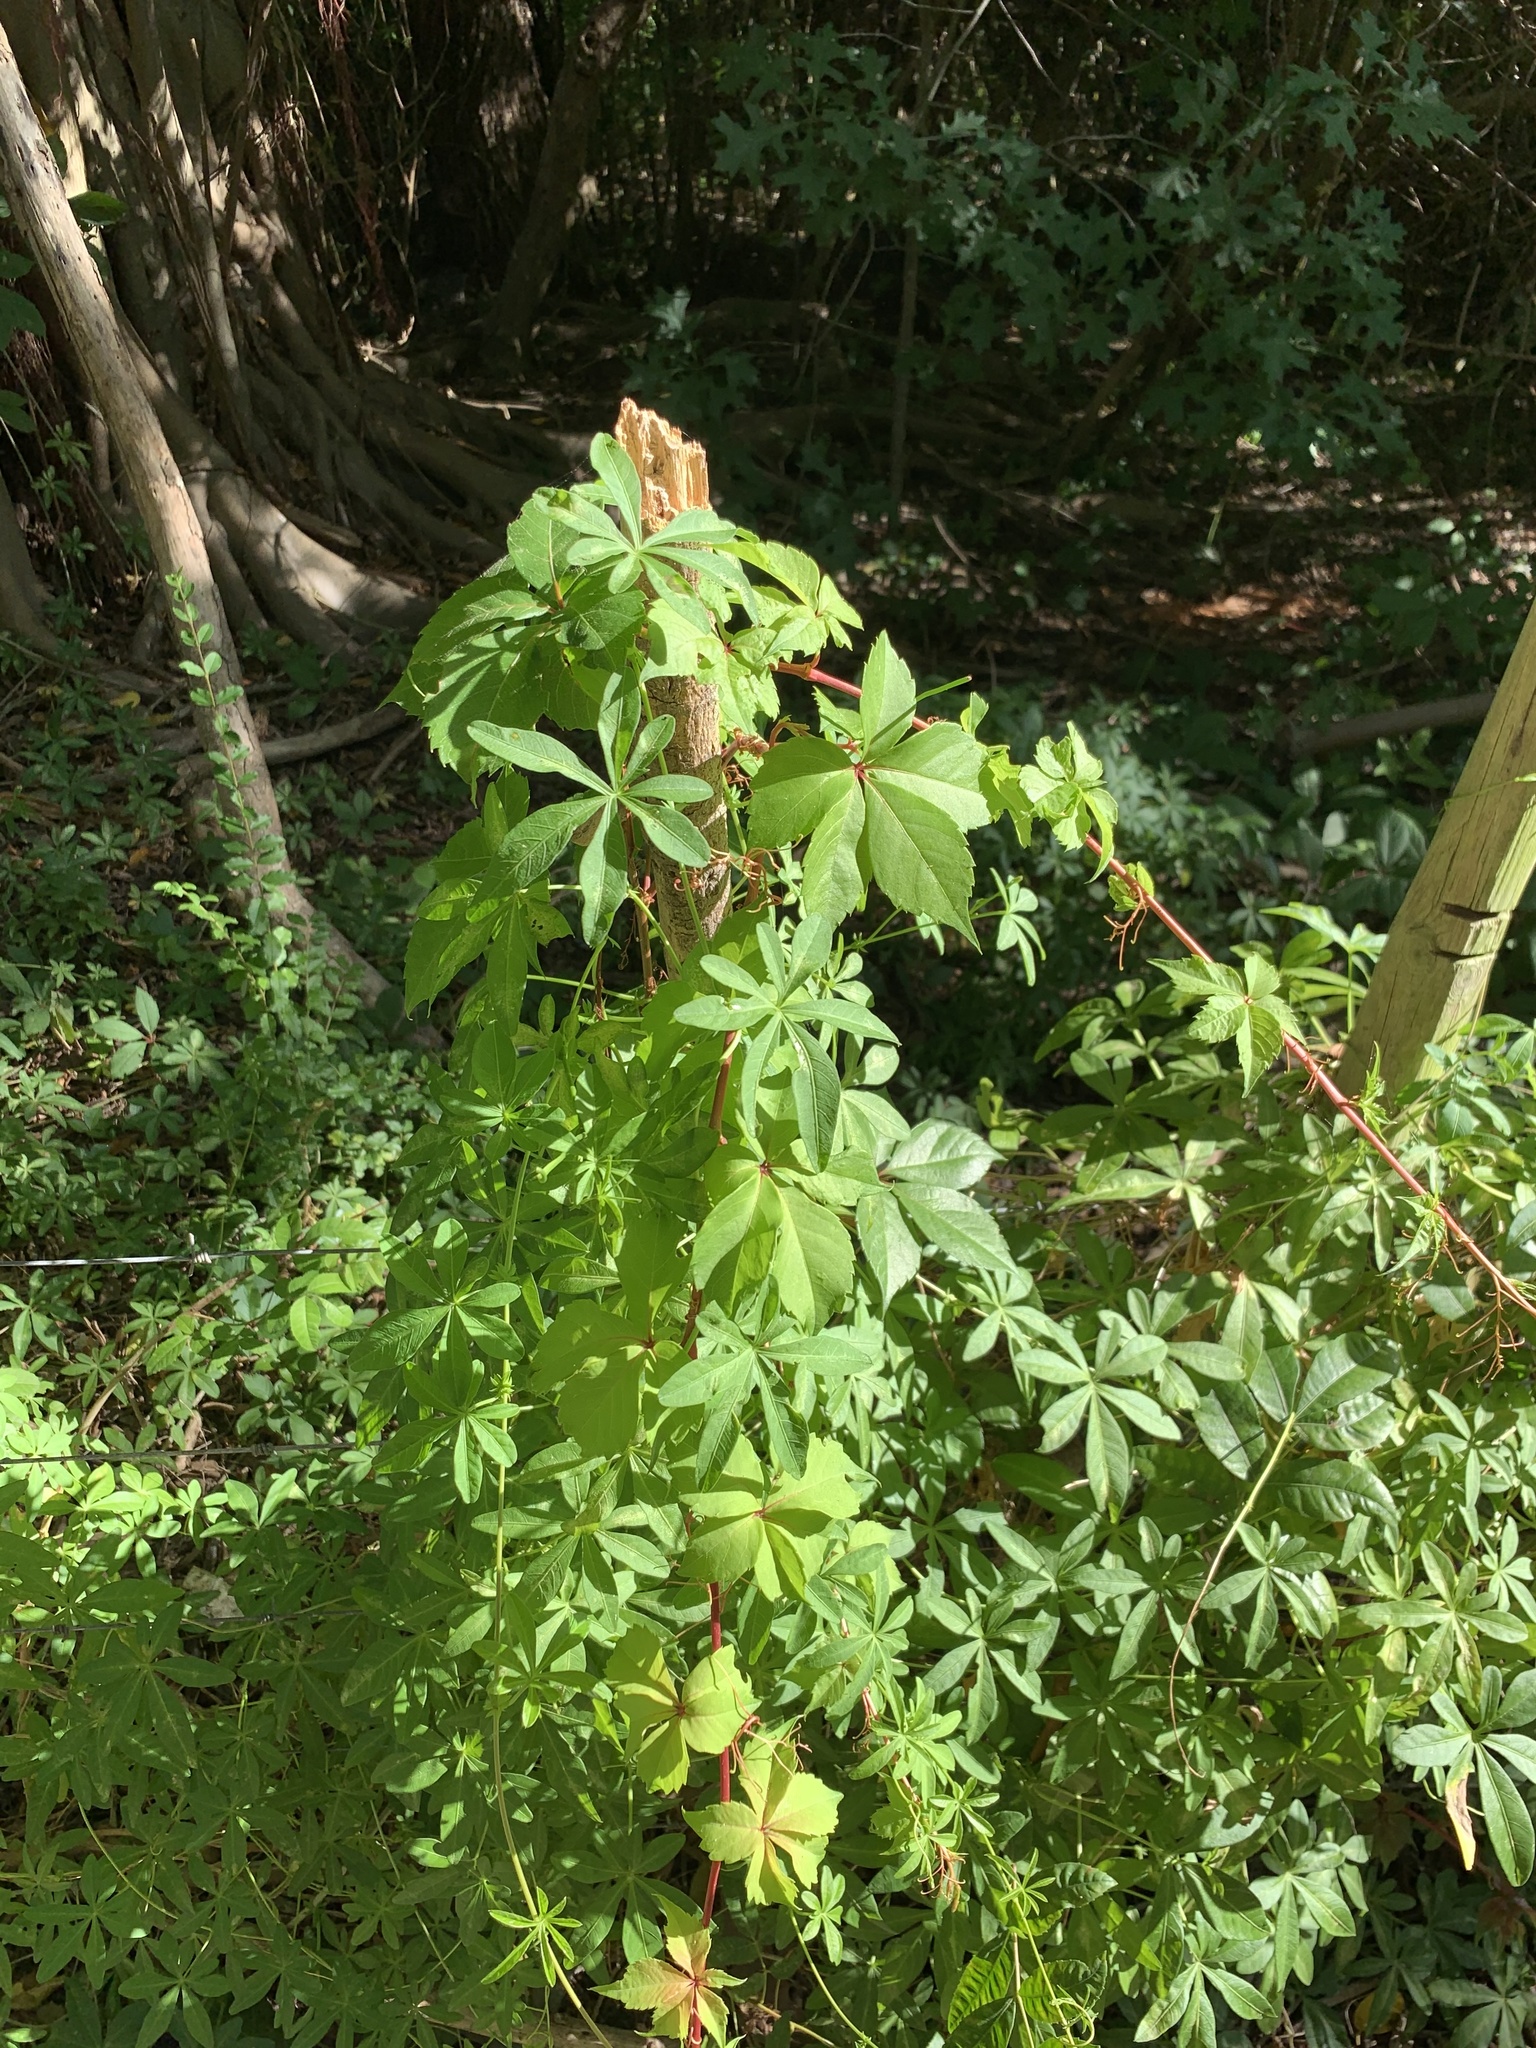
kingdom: Plantae
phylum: Tracheophyta
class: Magnoliopsida
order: Vitales
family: Vitaceae
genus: Parthenocissus
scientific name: Parthenocissus quinquefolia
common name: Virginia-creeper
